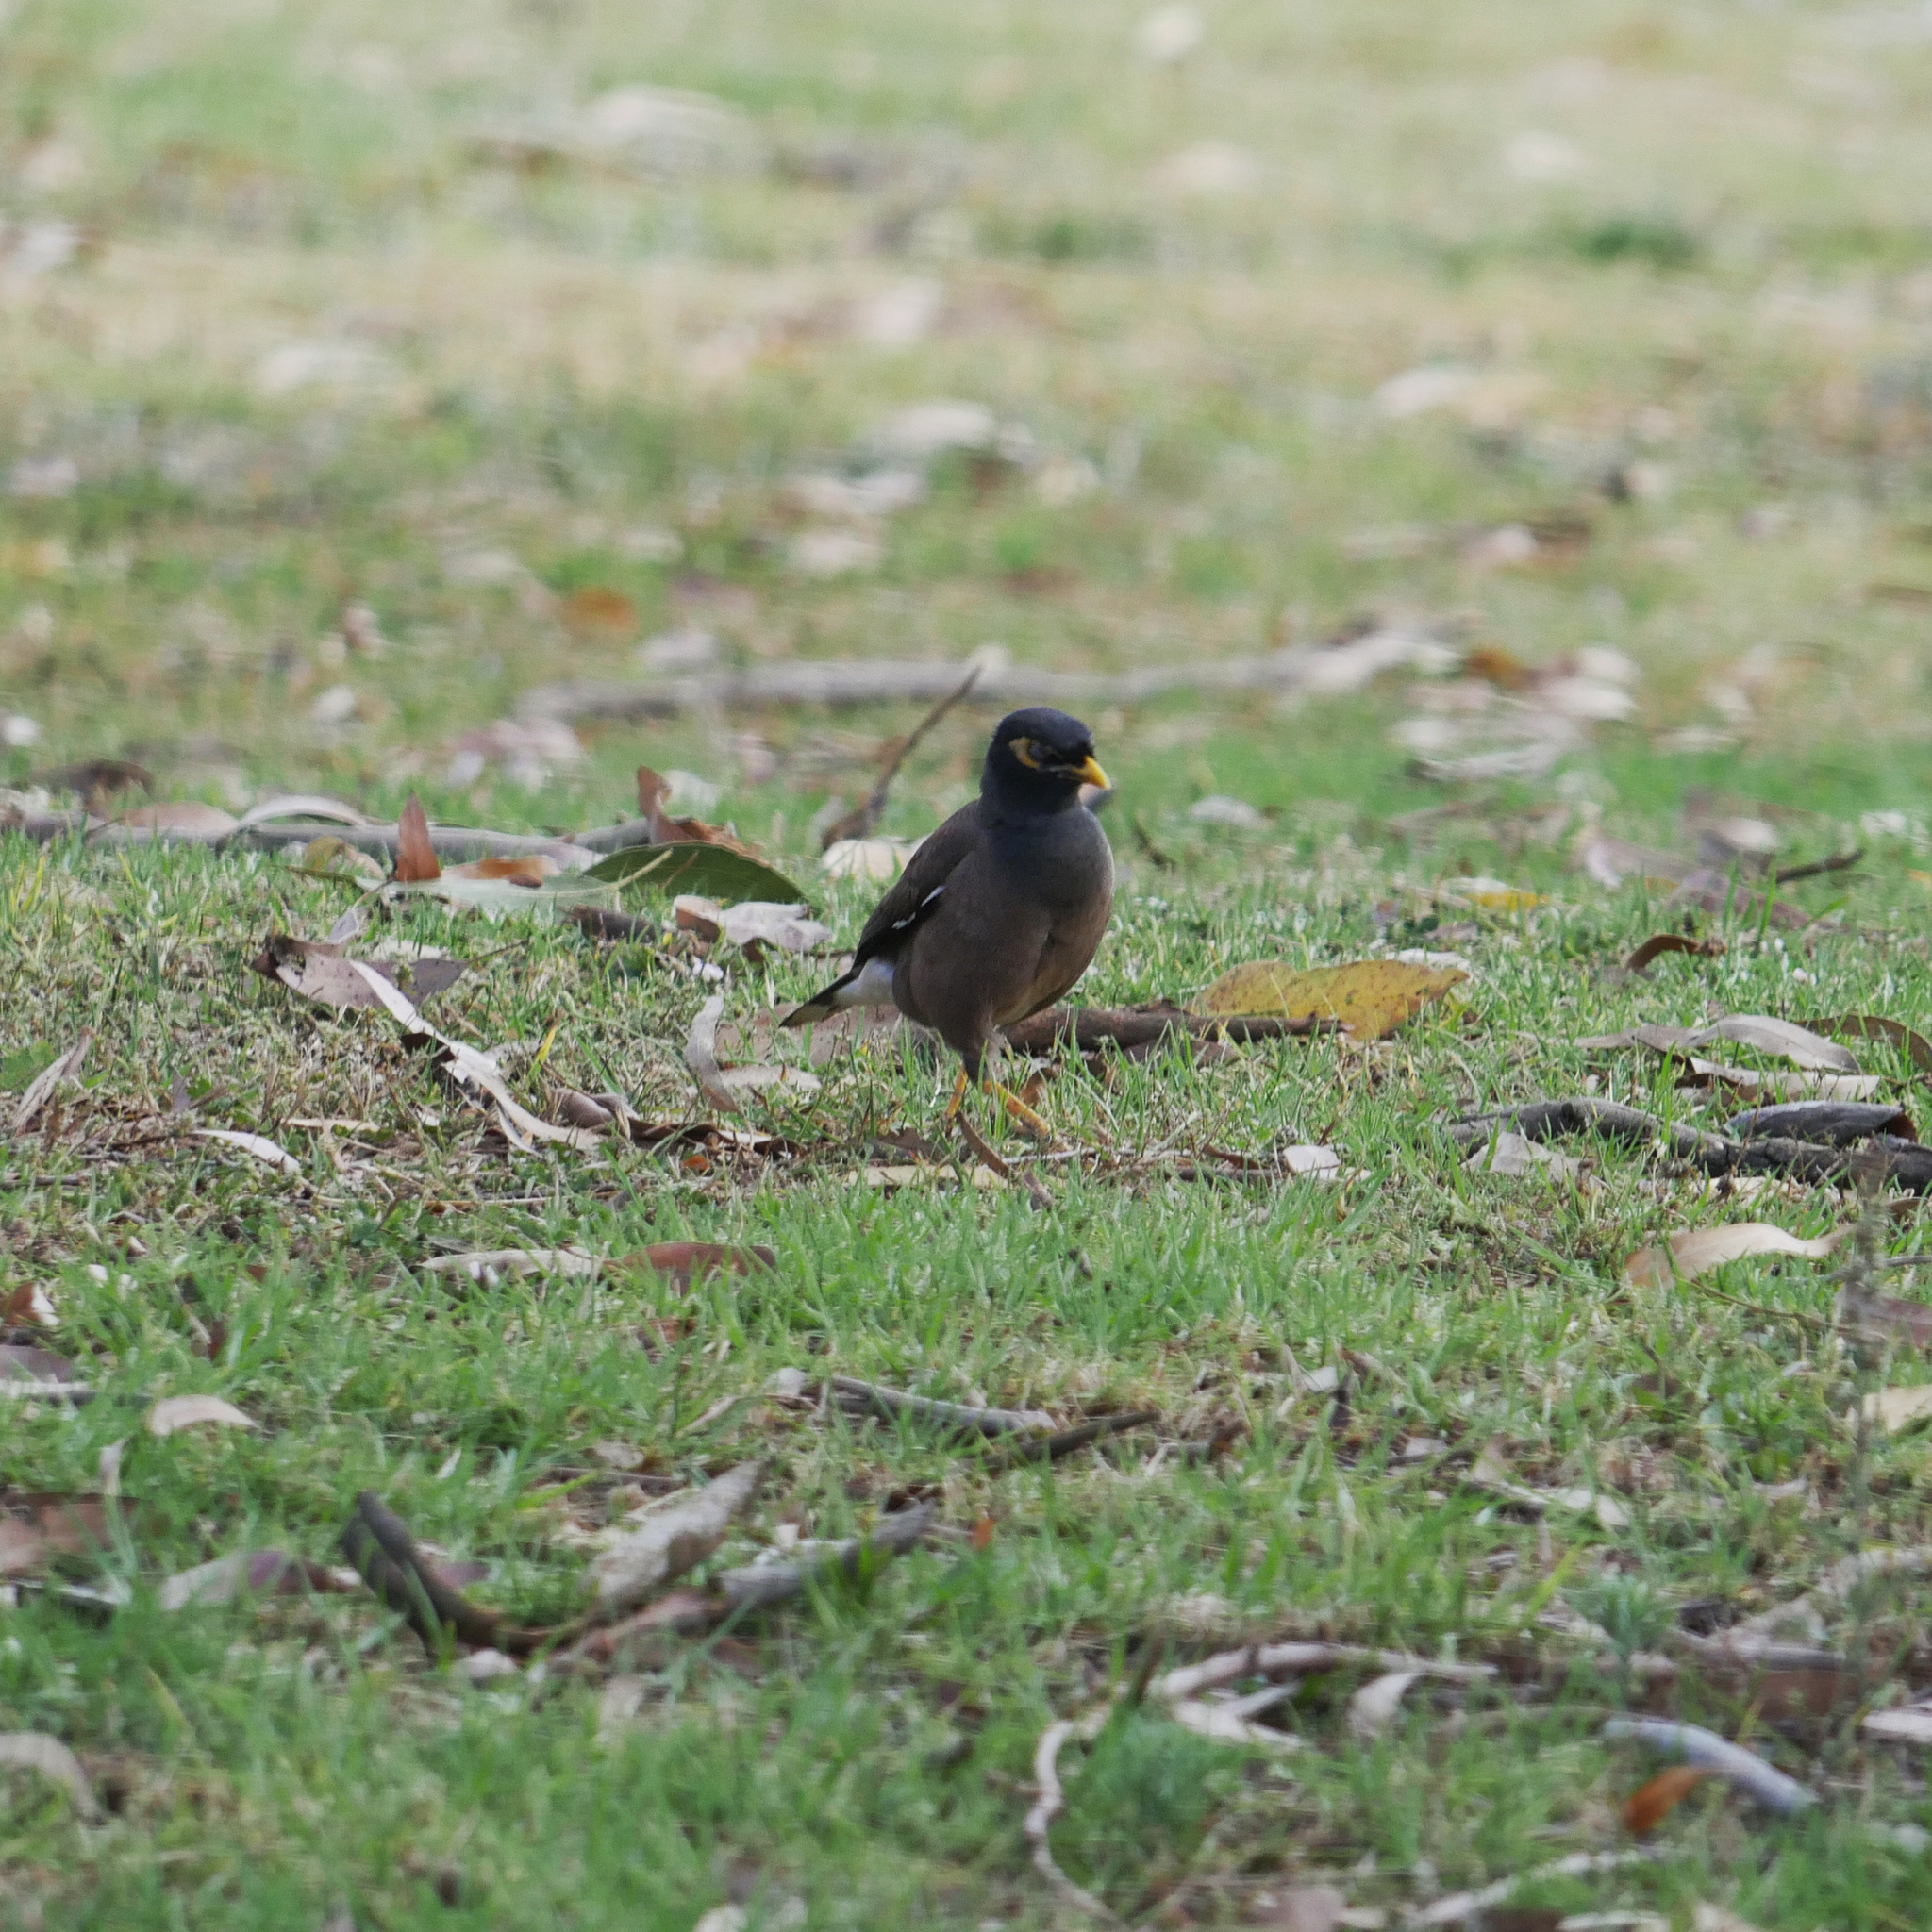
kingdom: Animalia
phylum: Chordata
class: Aves
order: Passeriformes
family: Sturnidae
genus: Acridotheres
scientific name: Acridotheres tristis
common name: Common myna
